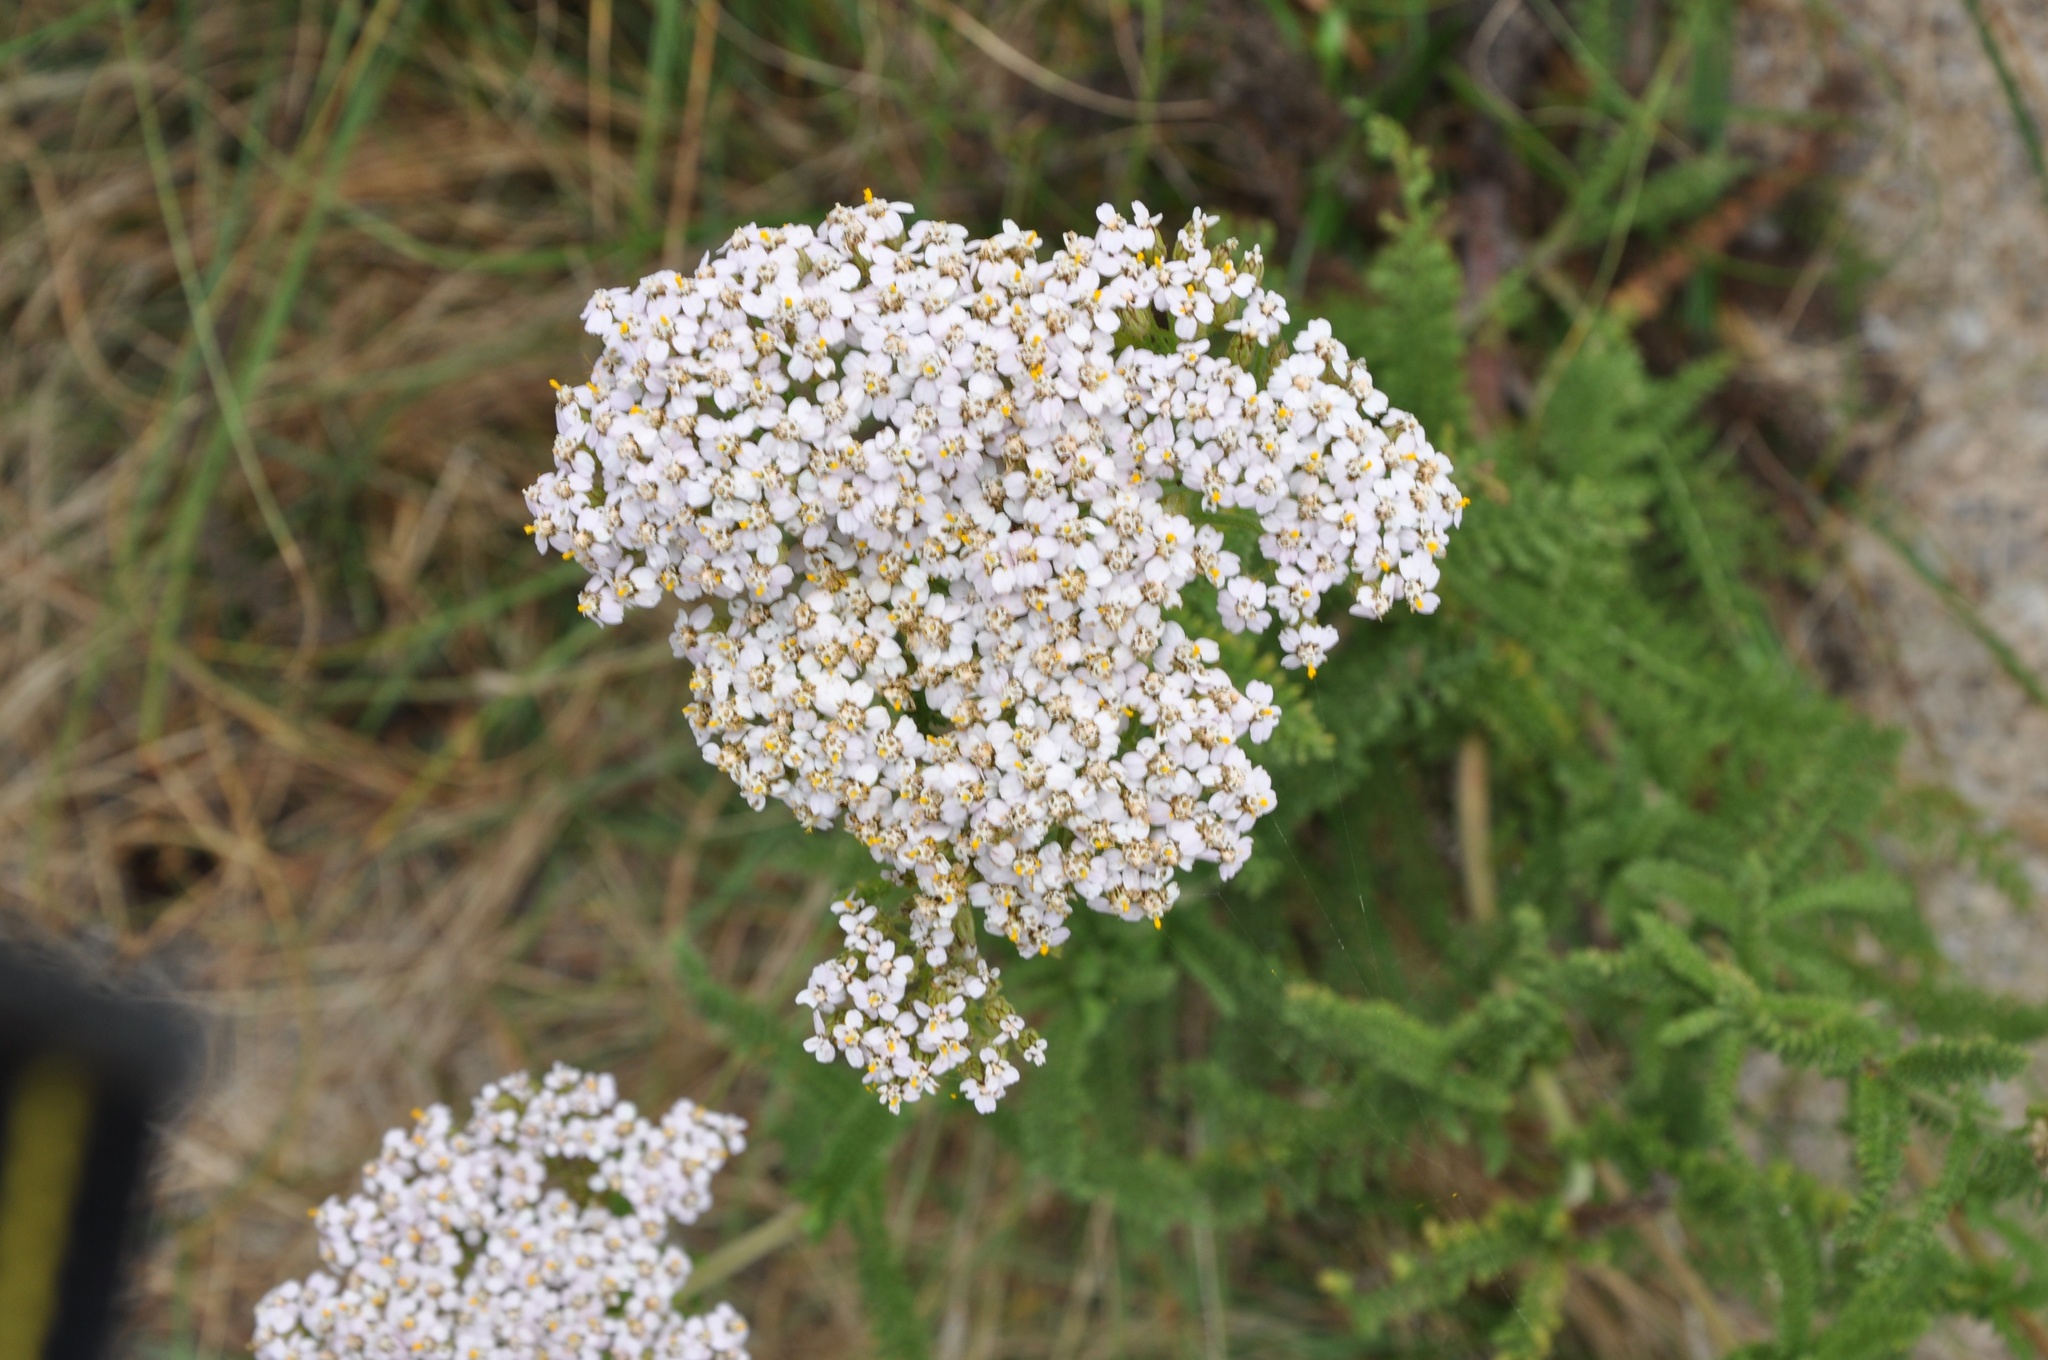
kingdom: Plantae
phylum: Tracheophyta
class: Magnoliopsida
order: Asterales
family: Asteraceae
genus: Achillea
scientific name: Achillea millefolium
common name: Yarrow
